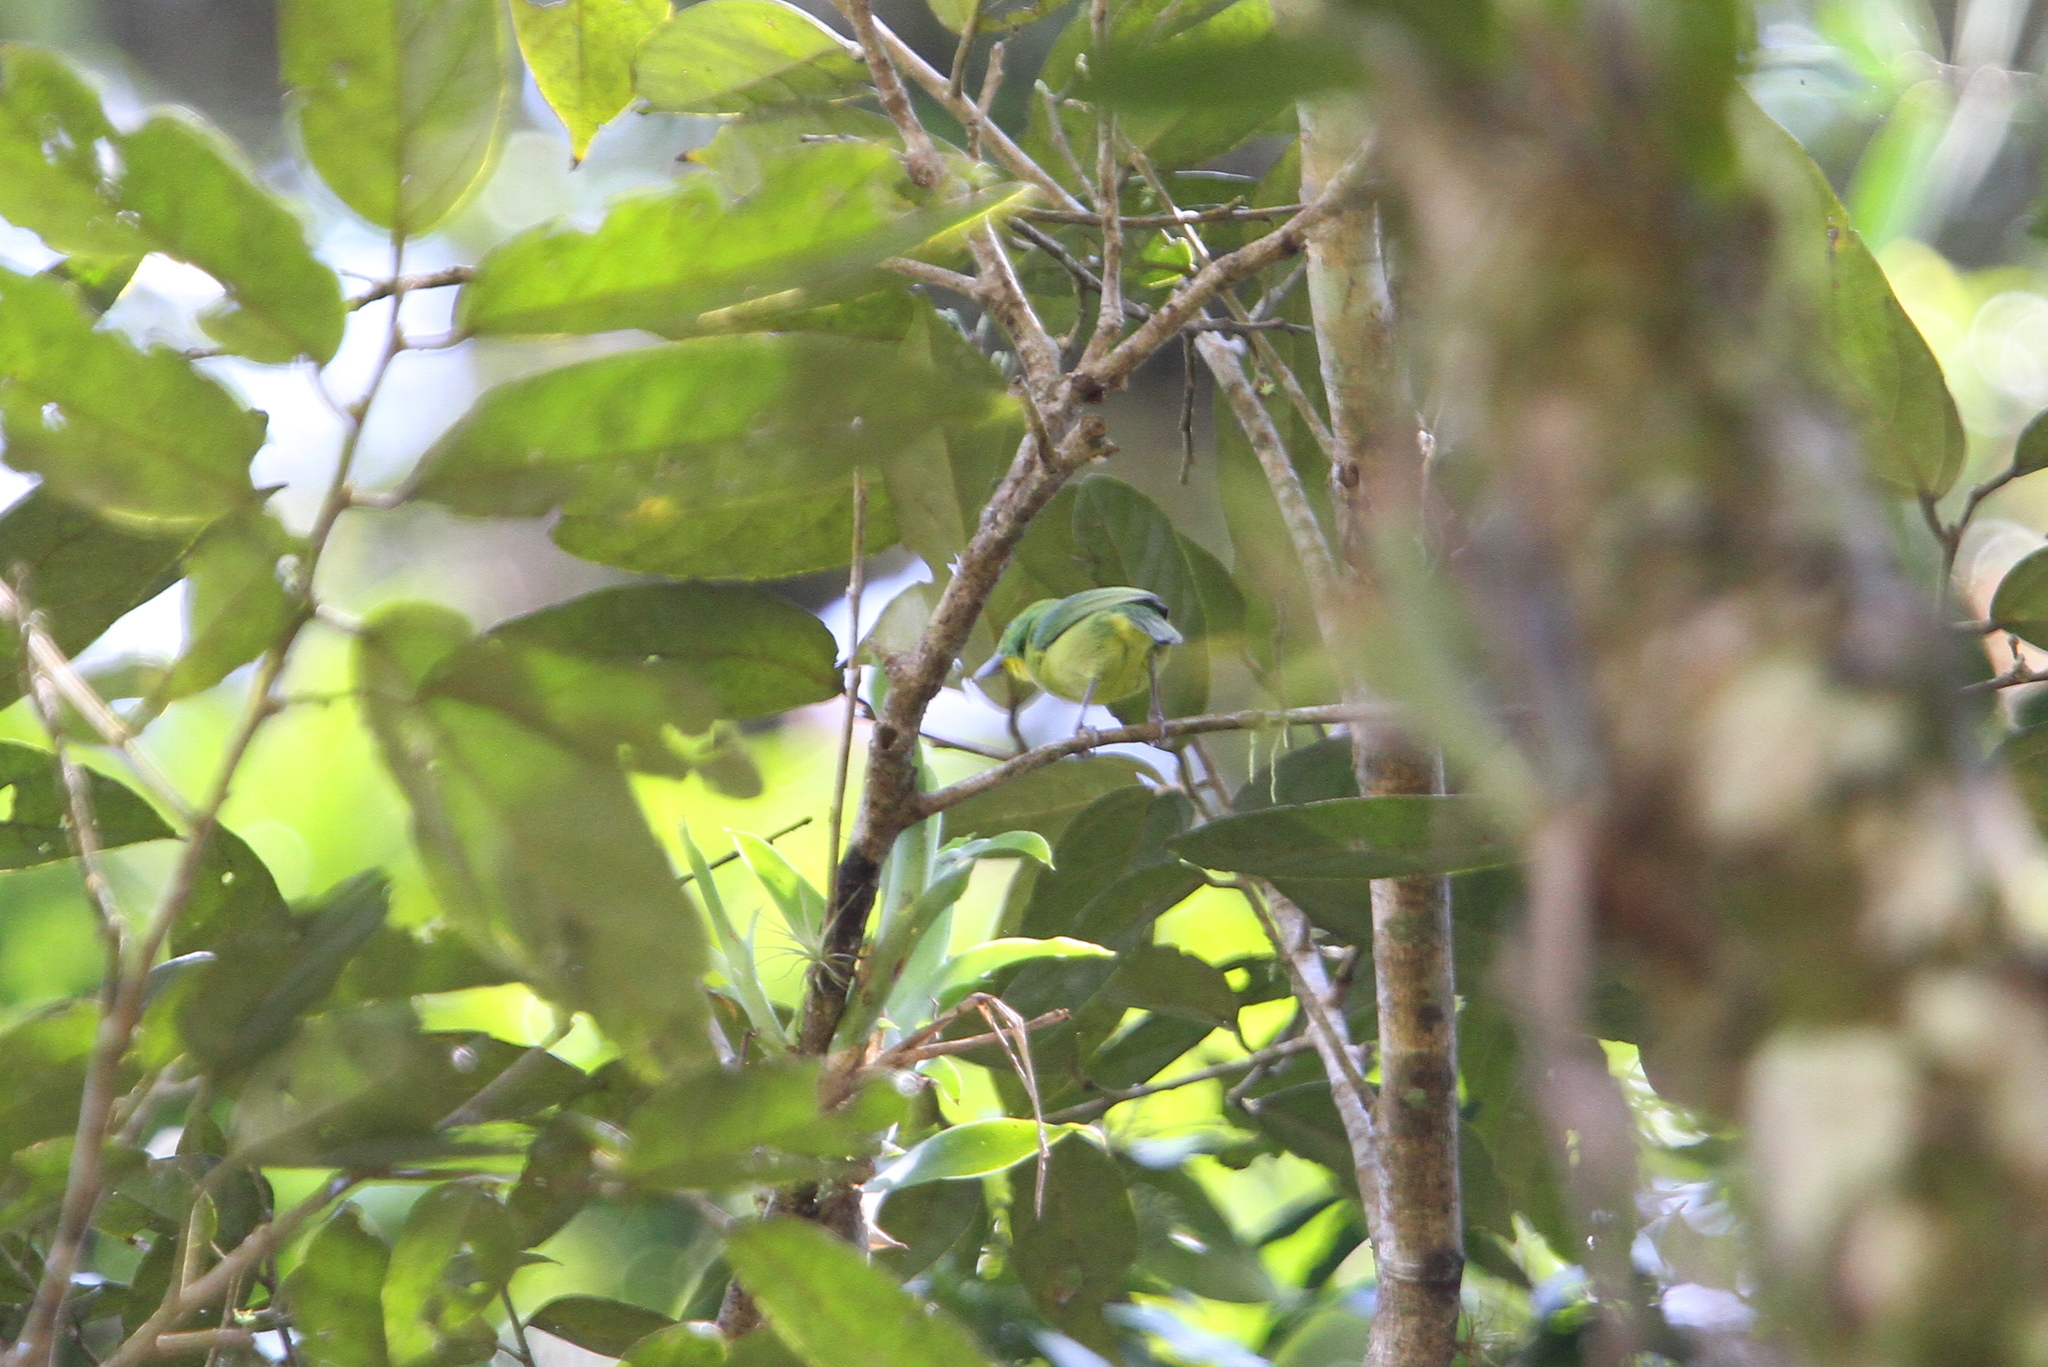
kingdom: Animalia
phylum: Chordata
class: Aves
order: Passeriformes
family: Vireonidae
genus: Vireolanius
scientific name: Vireolanius pulchellus
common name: Green shrike-vireo
